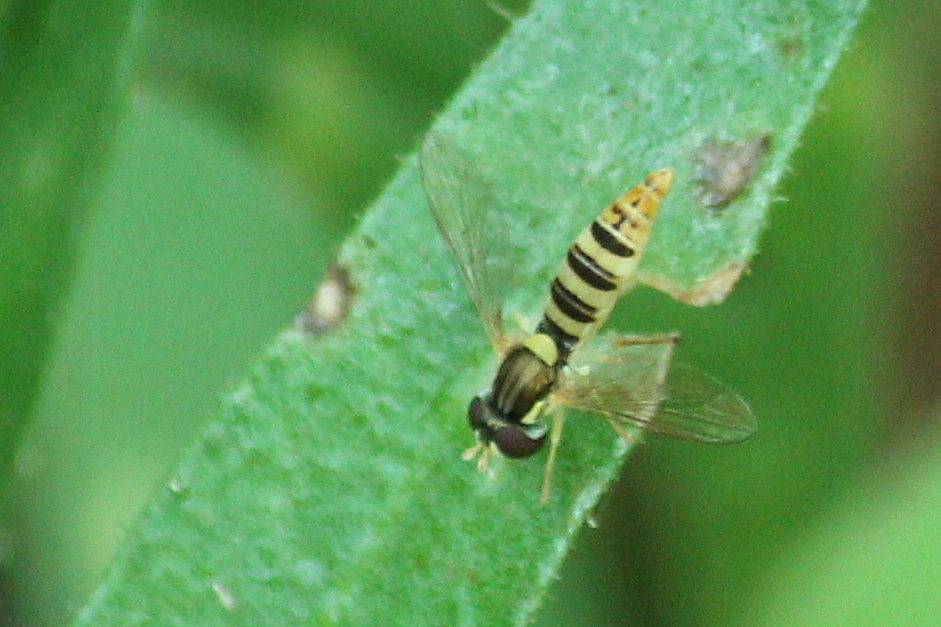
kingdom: Animalia
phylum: Arthropoda
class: Insecta
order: Diptera
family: Syrphidae
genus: Sphaerophoria
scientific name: Sphaerophoria contigua
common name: Tufted globetail
